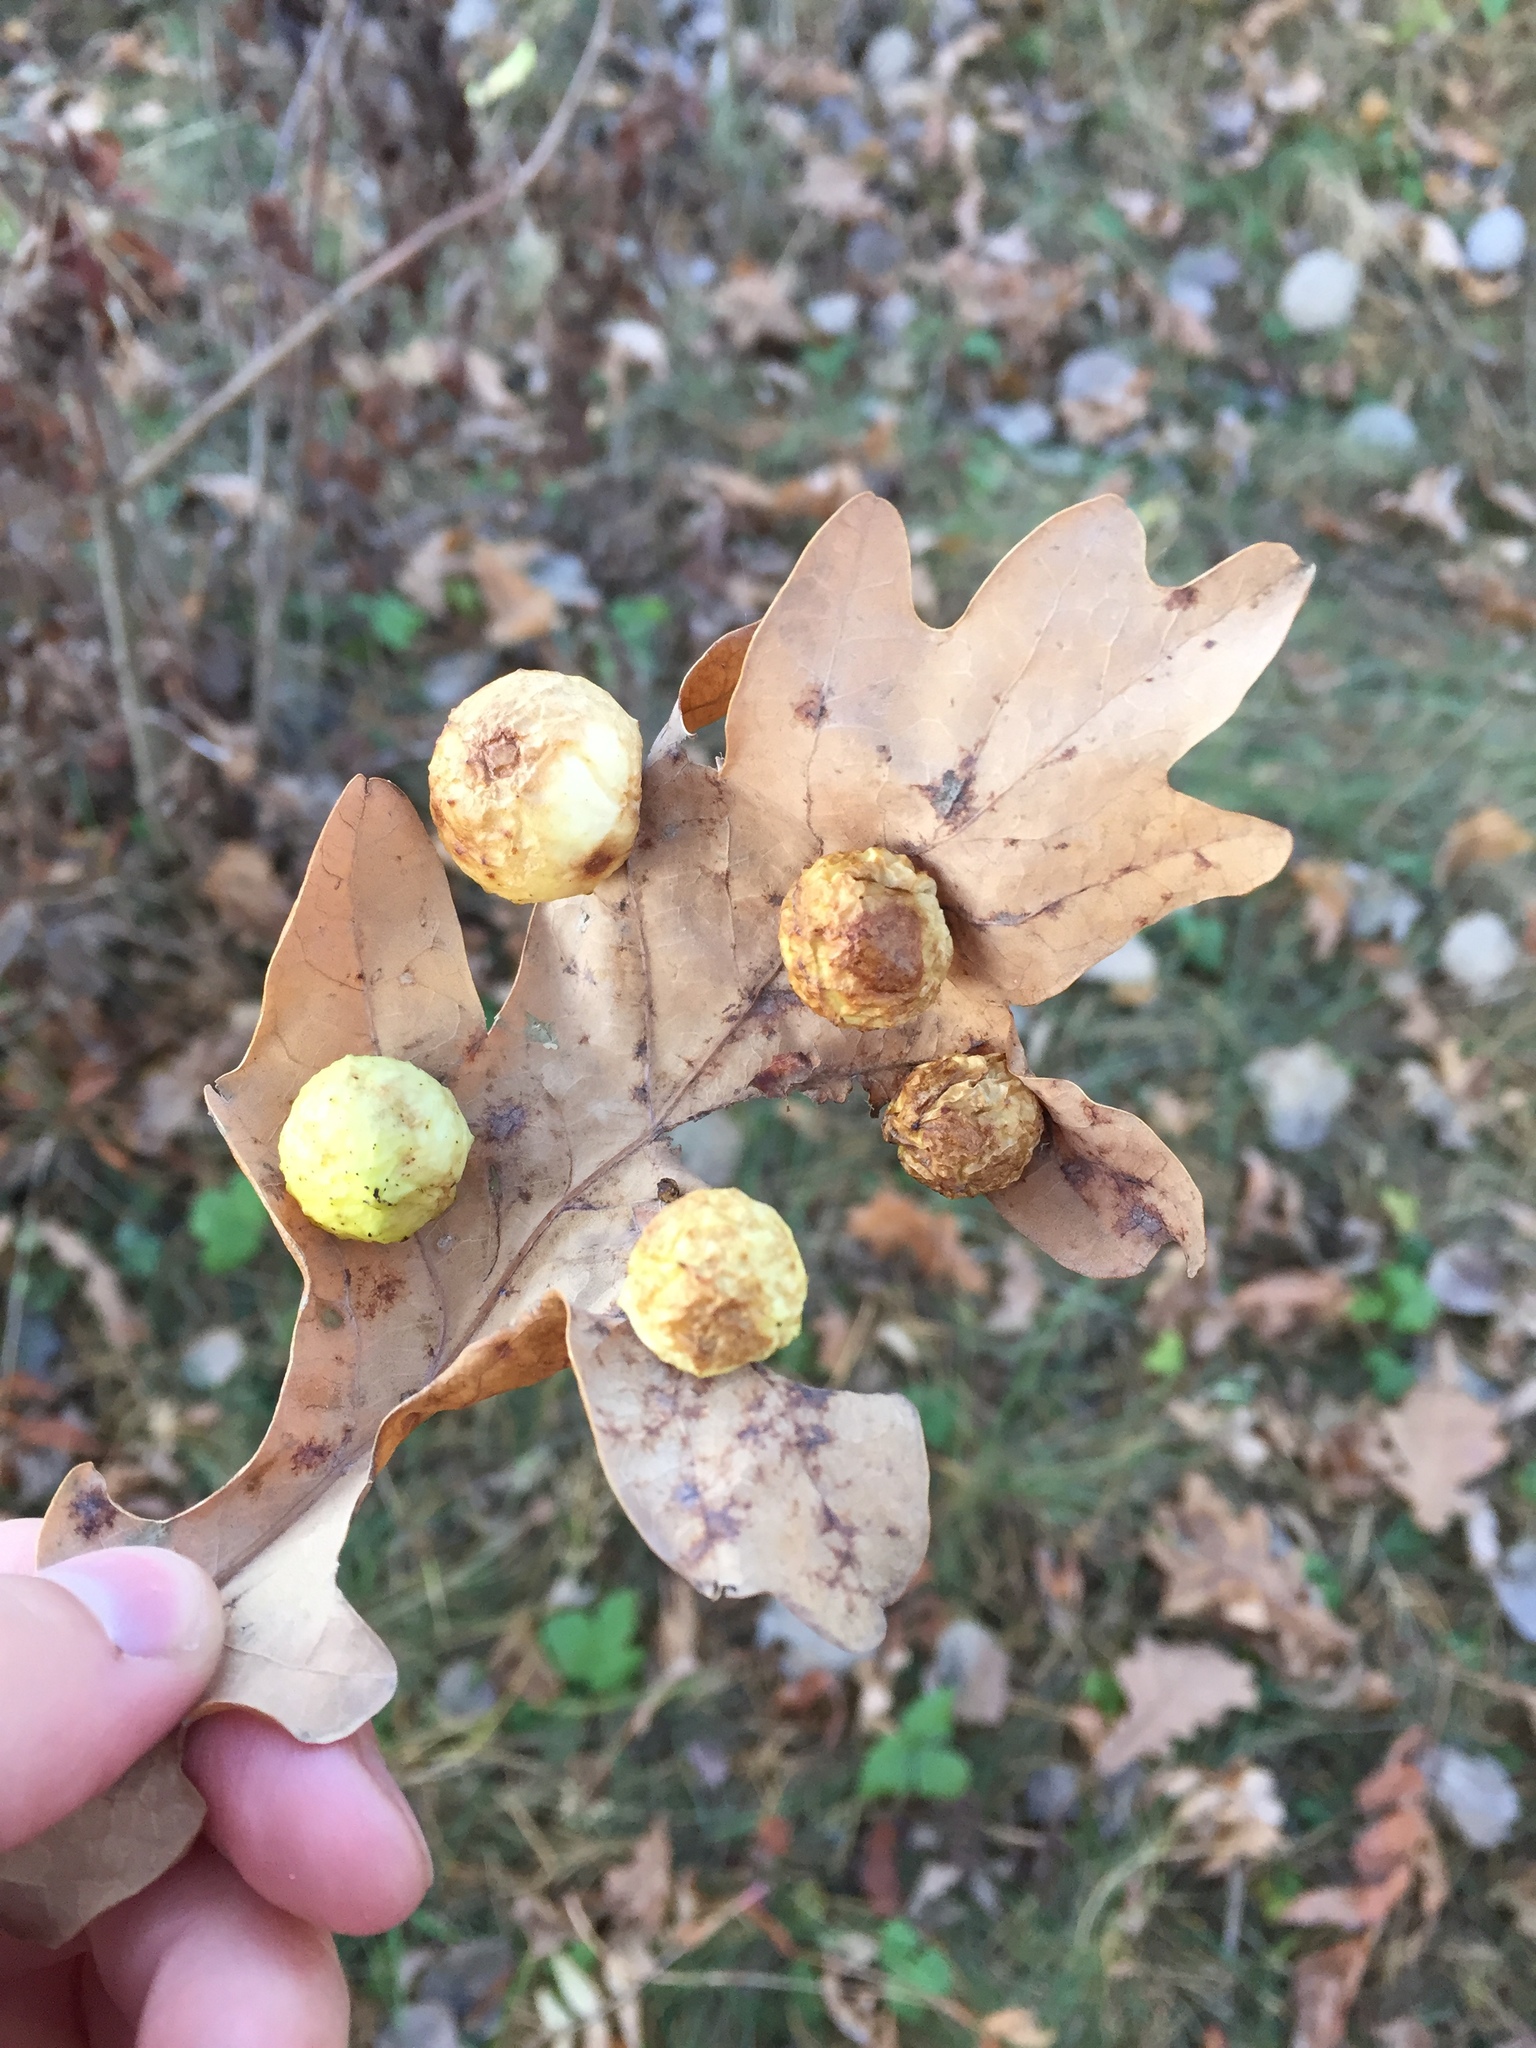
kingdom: Animalia
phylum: Arthropoda
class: Insecta
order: Hymenoptera
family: Cynipidae
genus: Cynips
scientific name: Cynips quercusfolii
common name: Cherry gall
